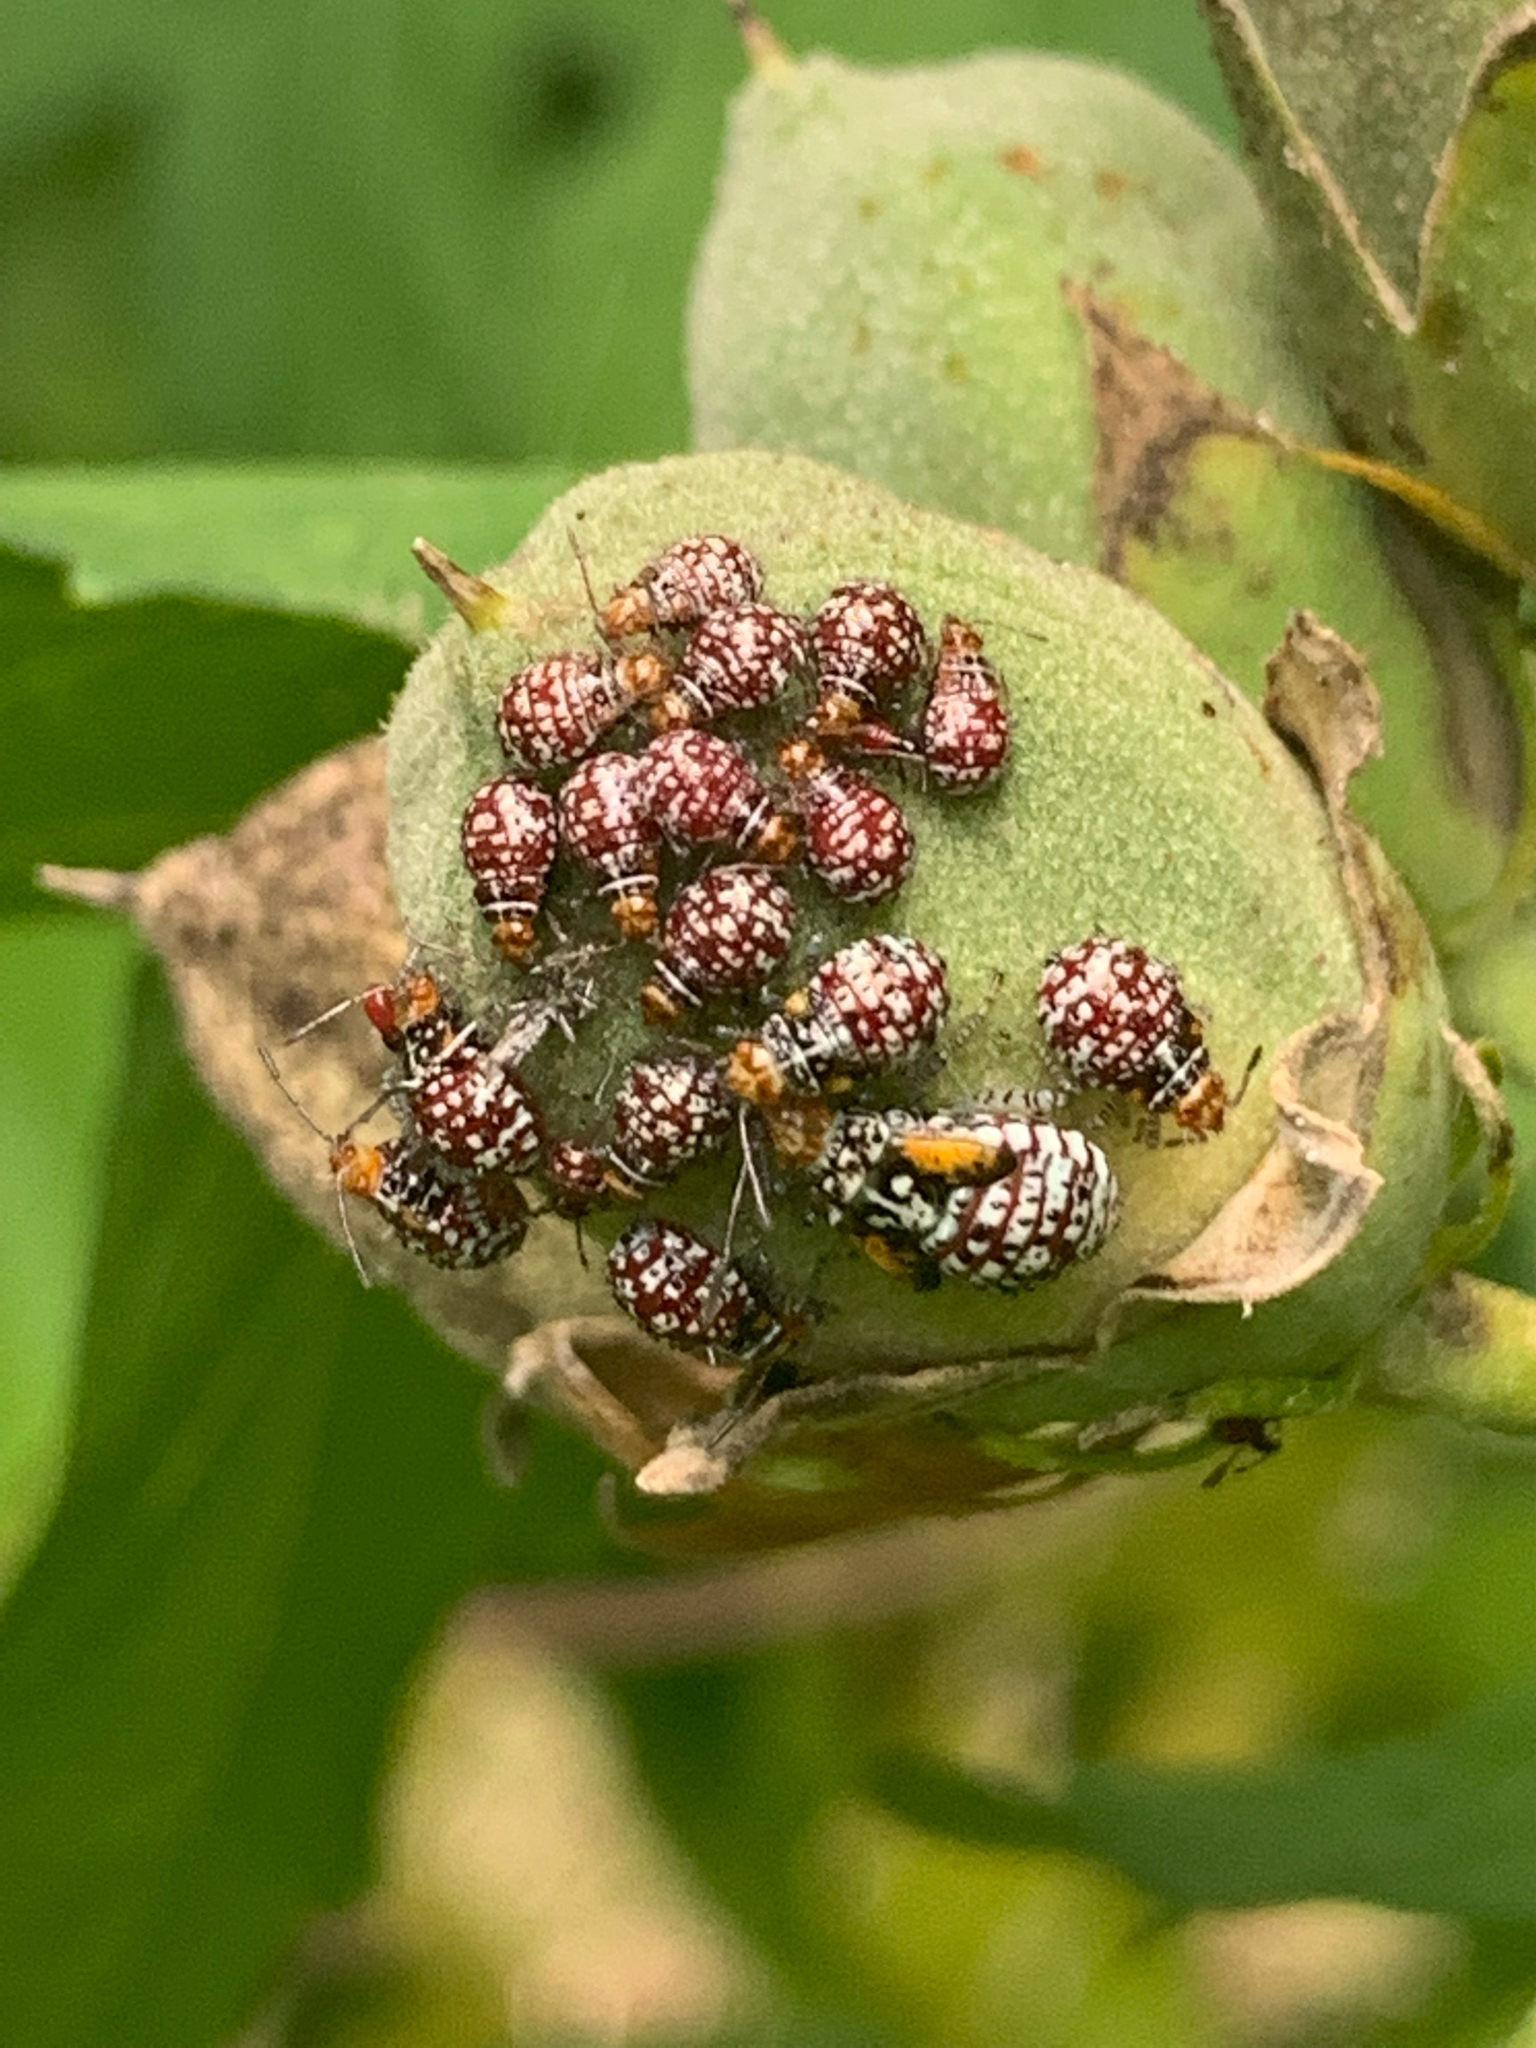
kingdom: Animalia
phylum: Arthropoda
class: Insecta
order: Hemiptera
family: Rhopalidae
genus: Niesthrea
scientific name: Niesthrea louisianica
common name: Scentless plant bug
